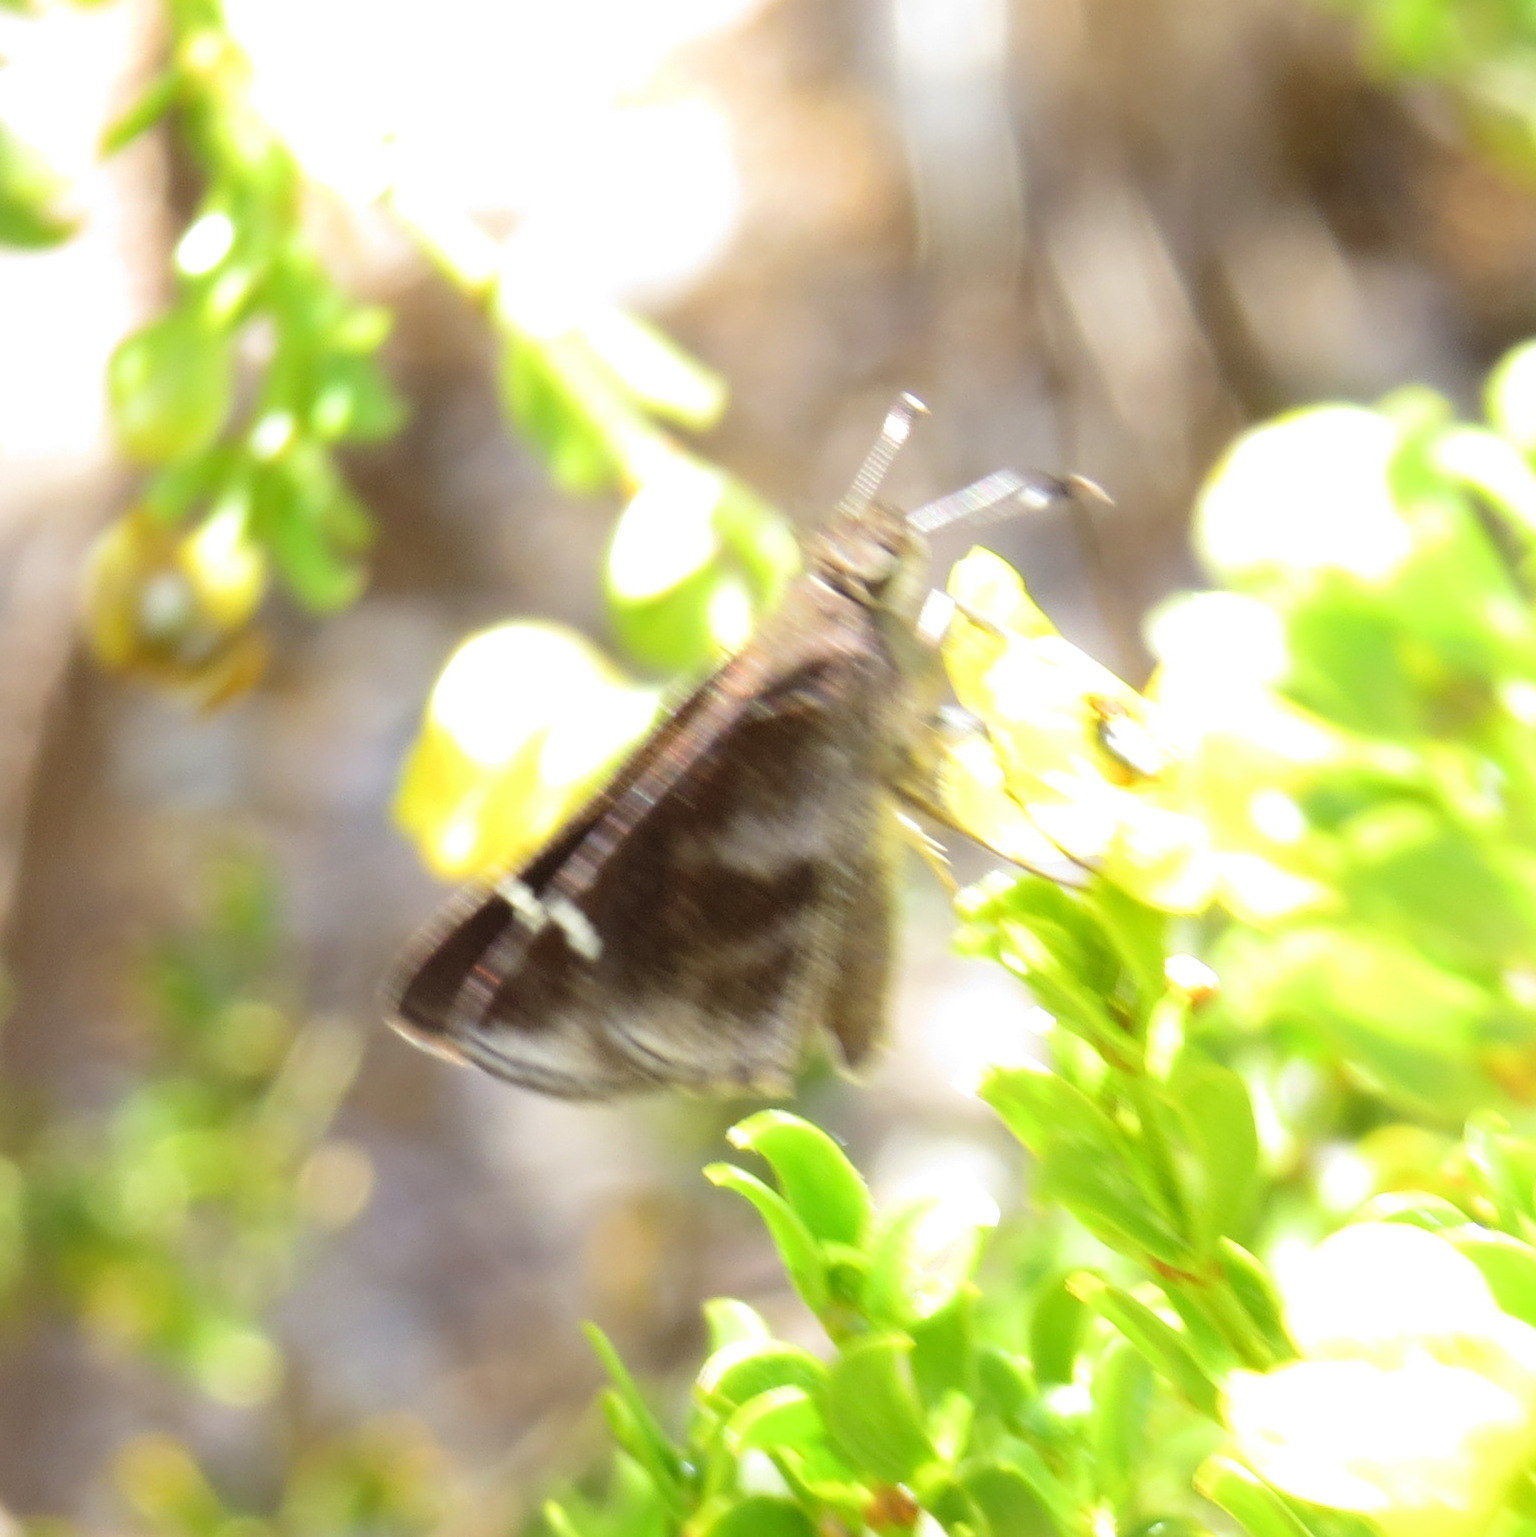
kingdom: Animalia
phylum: Arthropoda
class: Insecta
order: Lepidoptera
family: Hesperiidae
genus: Lerema
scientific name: Lerema accius
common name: Clouded skipper
